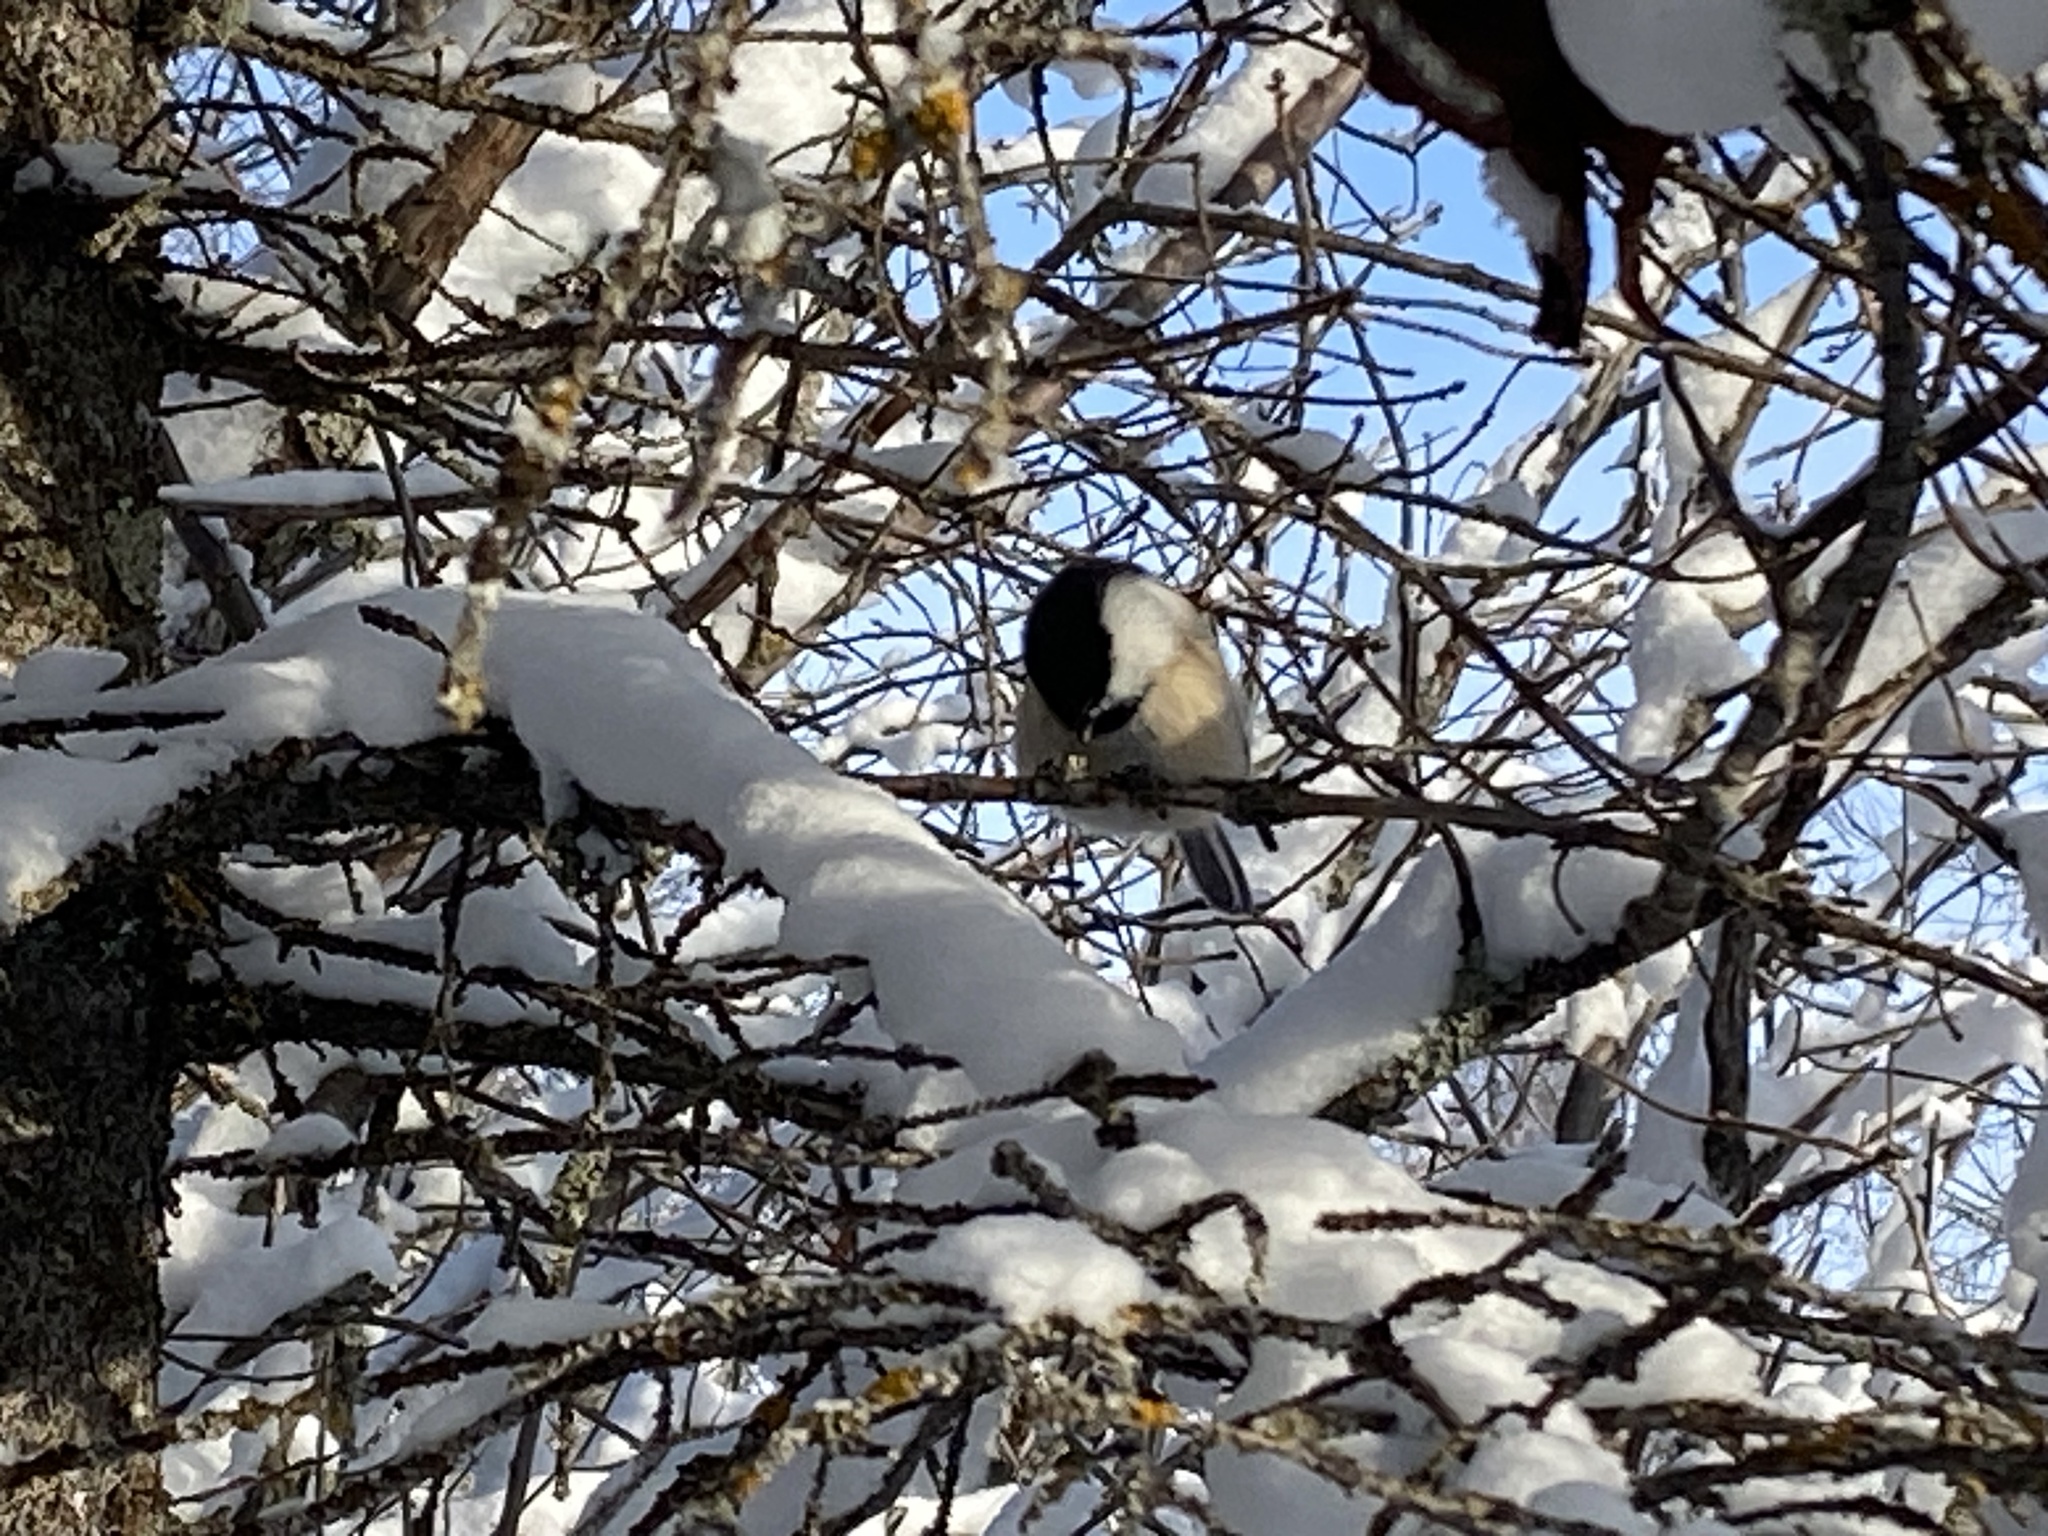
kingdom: Animalia
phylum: Chordata
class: Aves
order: Passeriformes
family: Paridae
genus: Poecile
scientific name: Poecile atricapillus
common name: Black-capped chickadee
